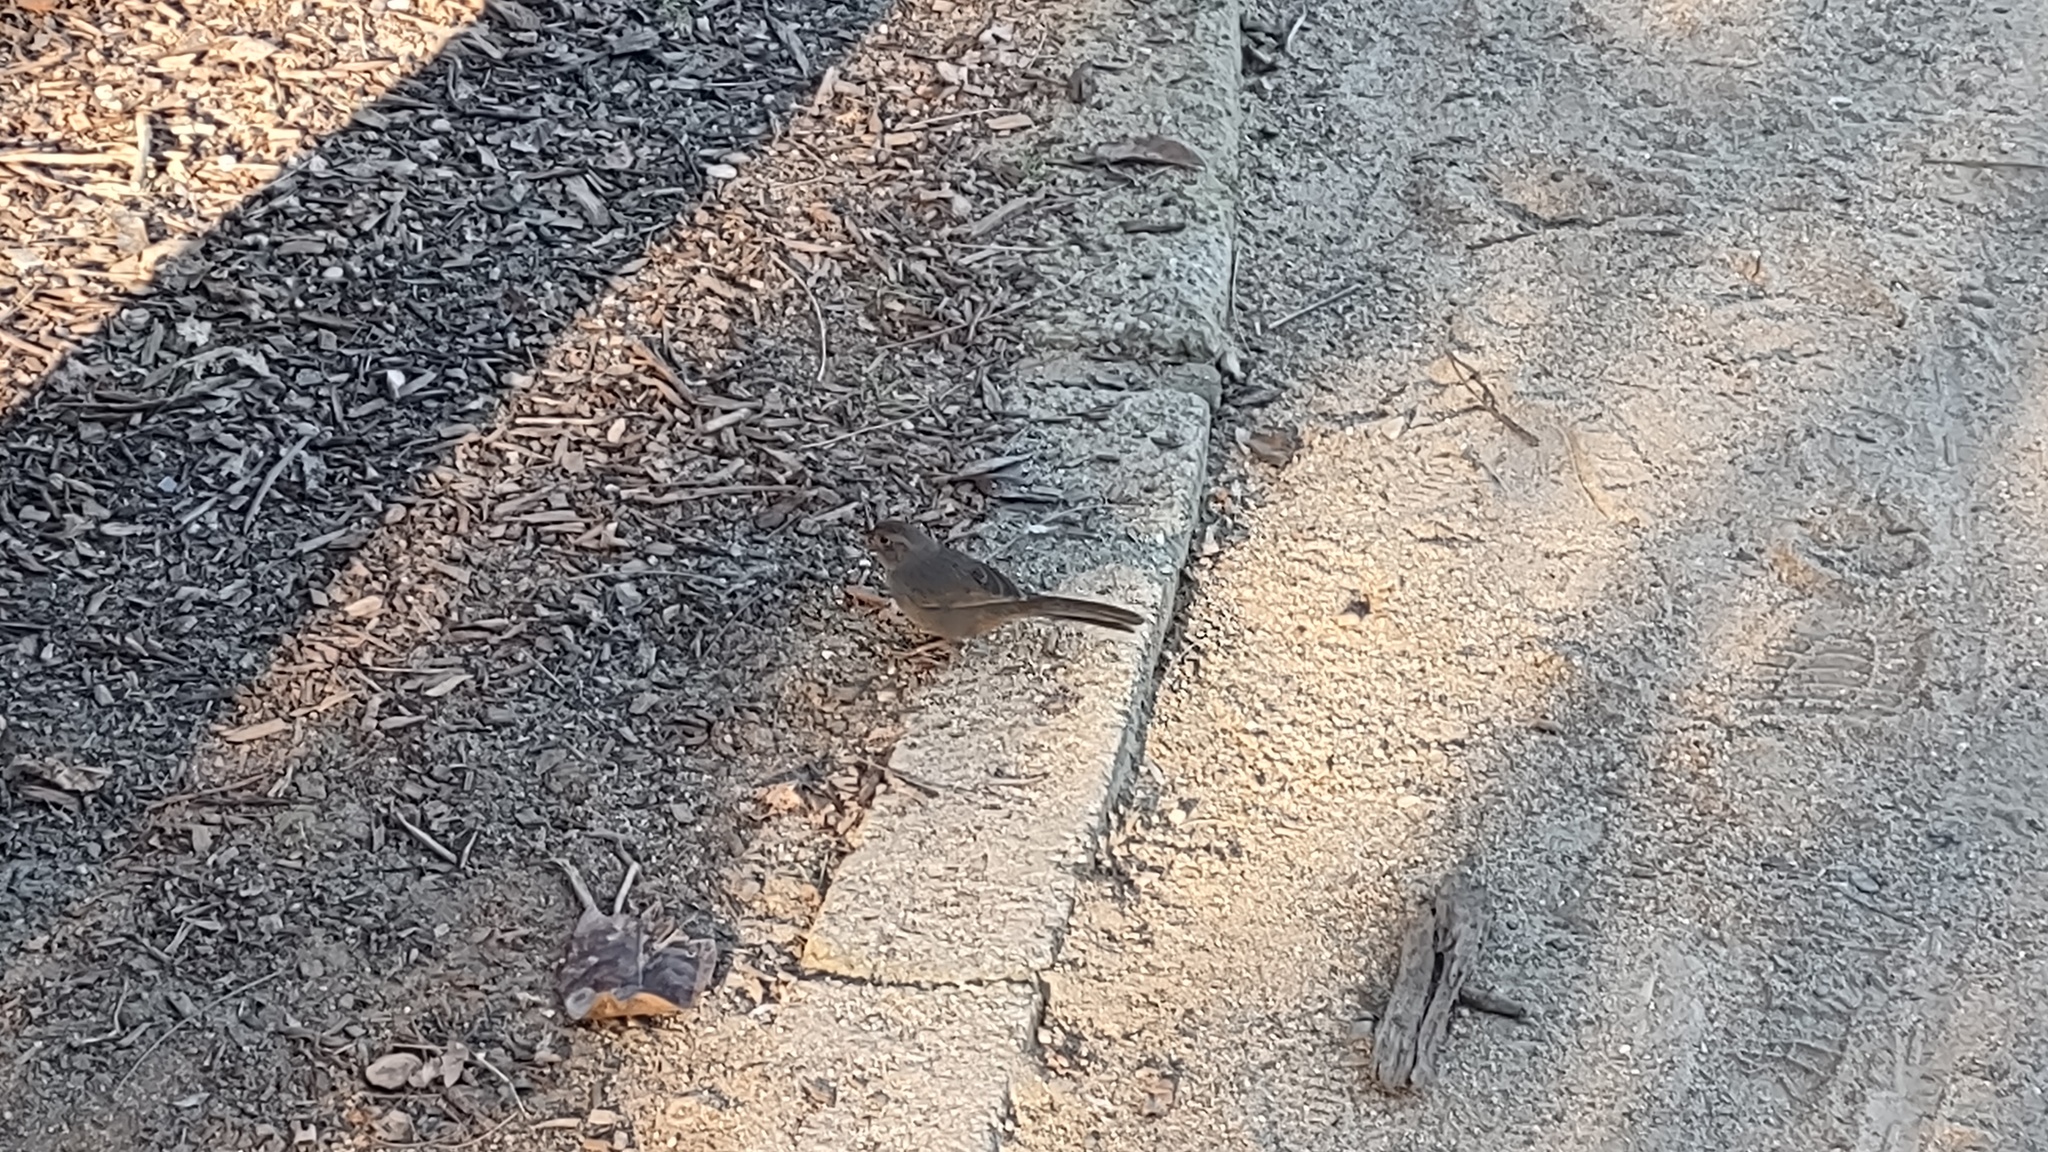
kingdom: Animalia
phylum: Chordata
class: Aves
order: Passeriformes
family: Passerellidae
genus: Melozone
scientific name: Melozone crissalis
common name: California towhee
